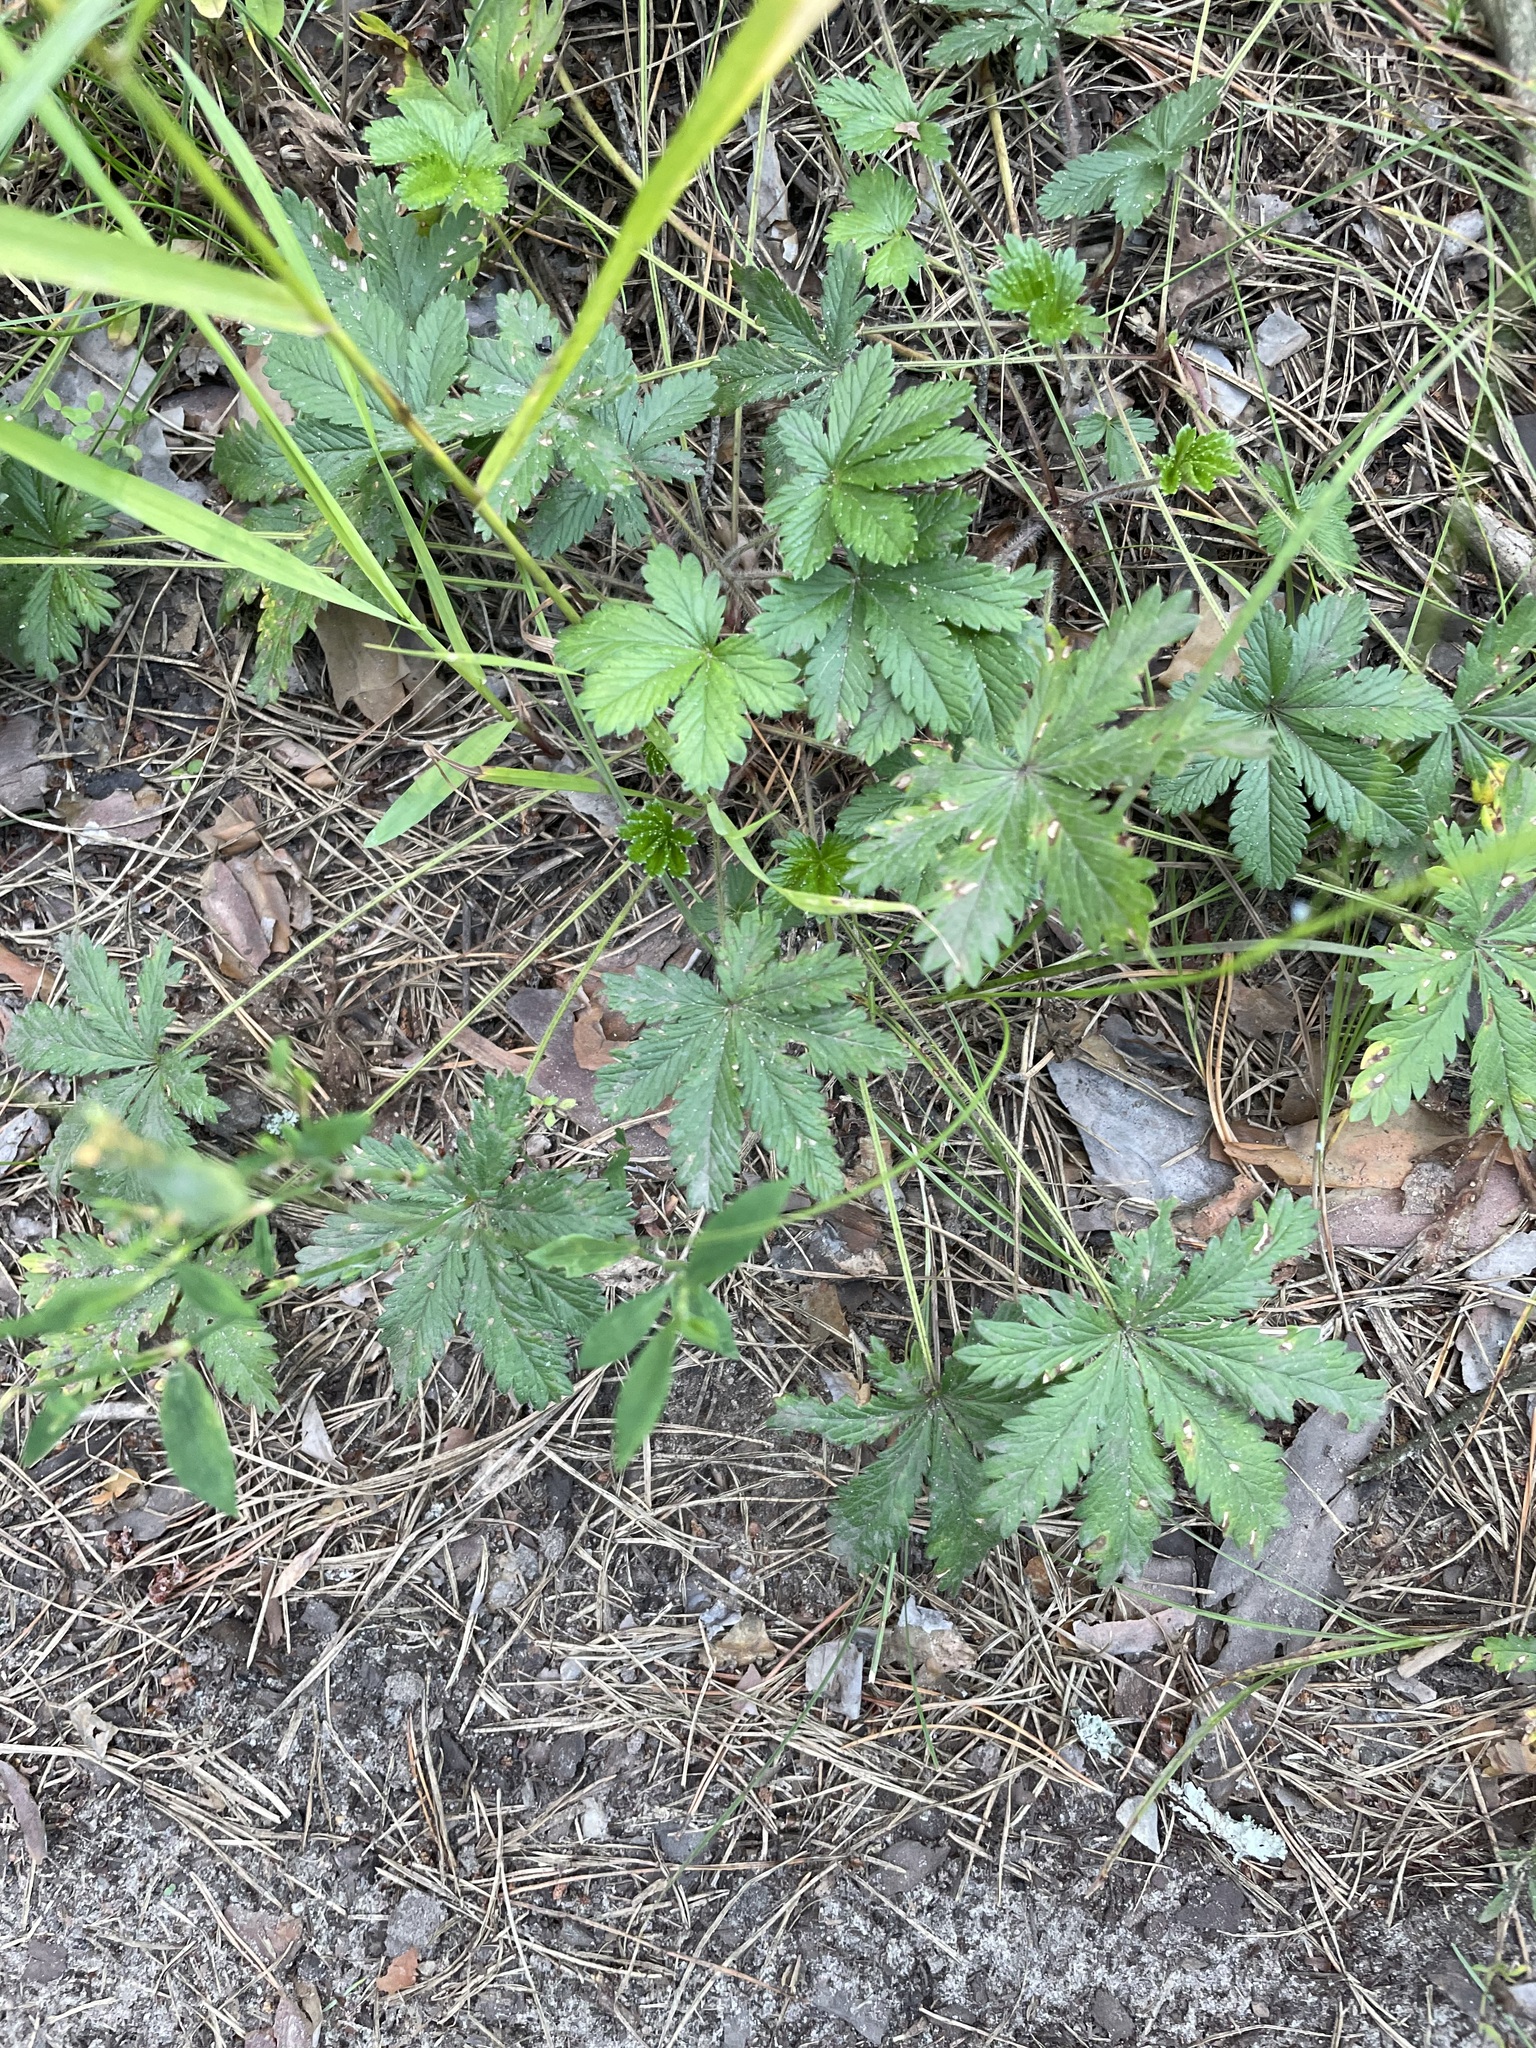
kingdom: Plantae
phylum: Tracheophyta
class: Magnoliopsida
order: Rosales
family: Rosaceae
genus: Potentilla
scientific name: Potentilla thuringiaca
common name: European cinquefoil
